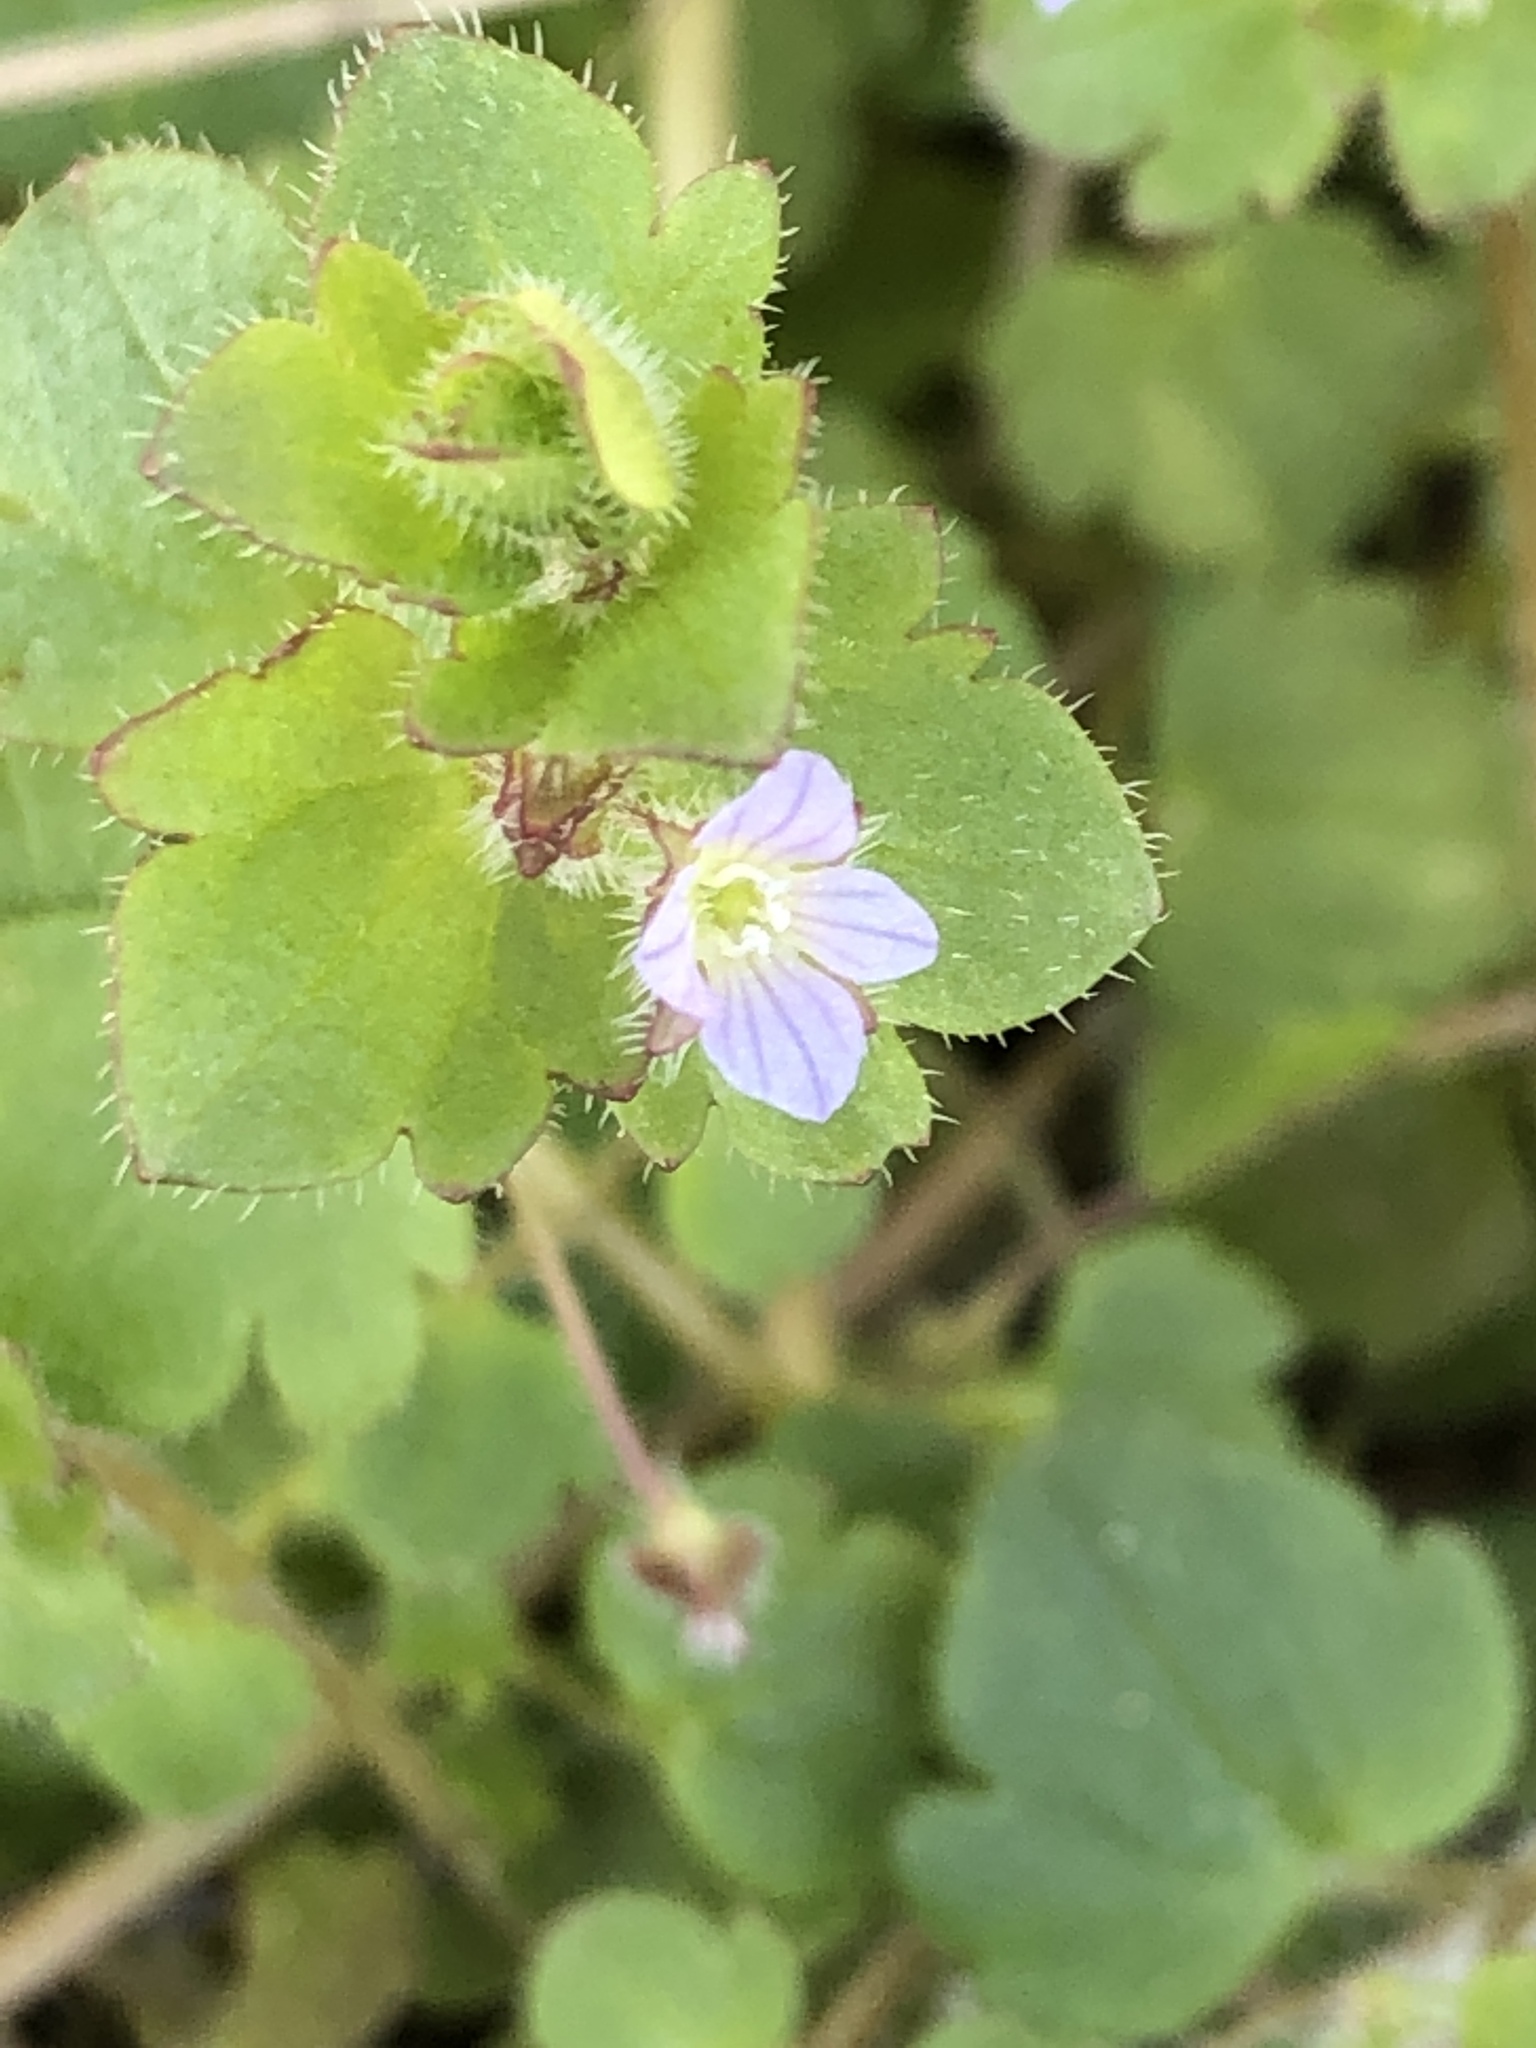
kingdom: Plantae
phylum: Tracheophyta
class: Magnoliopsida
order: Lamiales
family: Plantaginaceae
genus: Veronica
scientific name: Veronica sublobata
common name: False ivy-leaved speedwell
